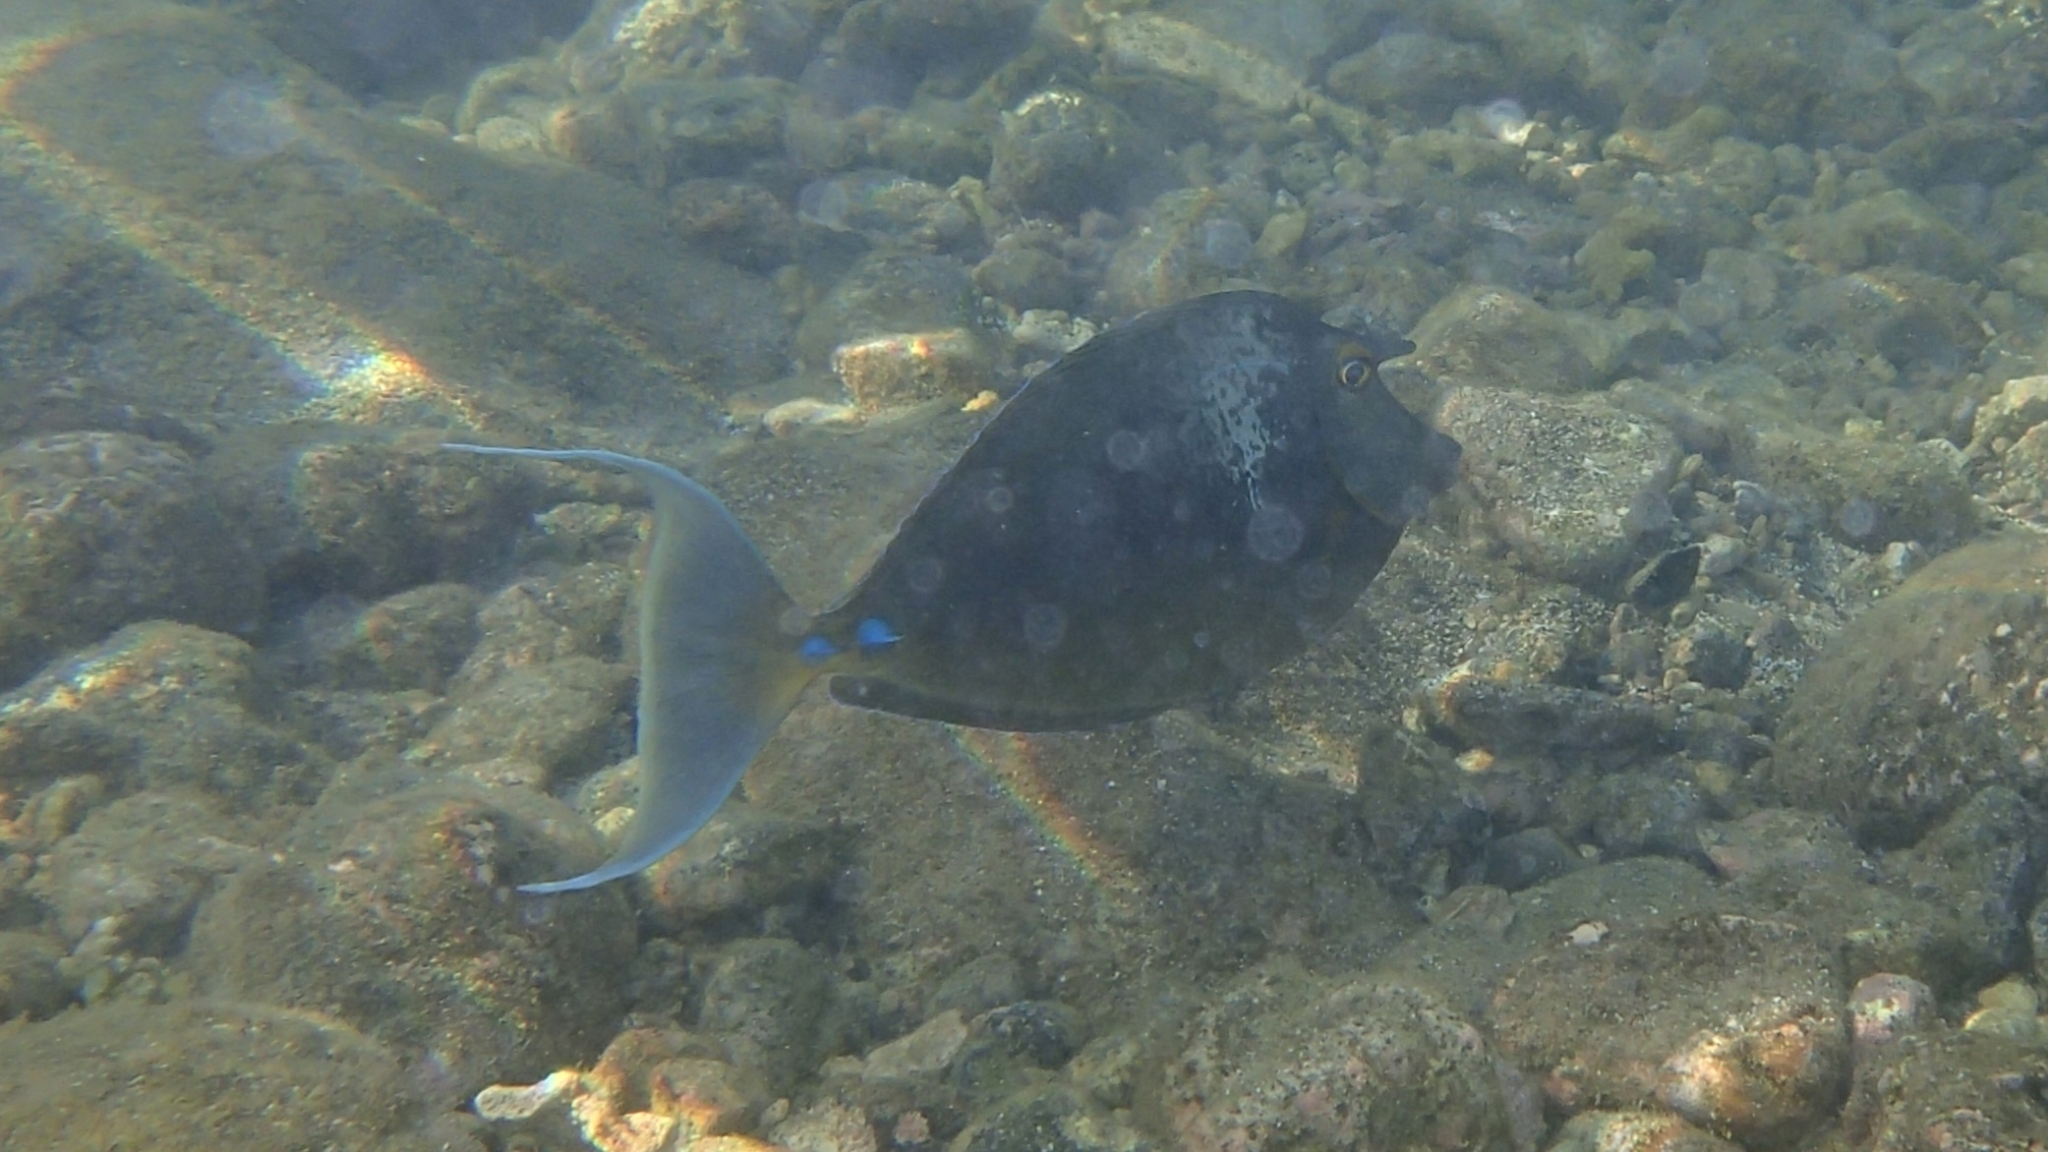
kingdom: Animalia
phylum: Chordata
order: Perciformes
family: Acanthuridae
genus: Naso
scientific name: Naso unicornis
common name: Bluespine unicornfish
